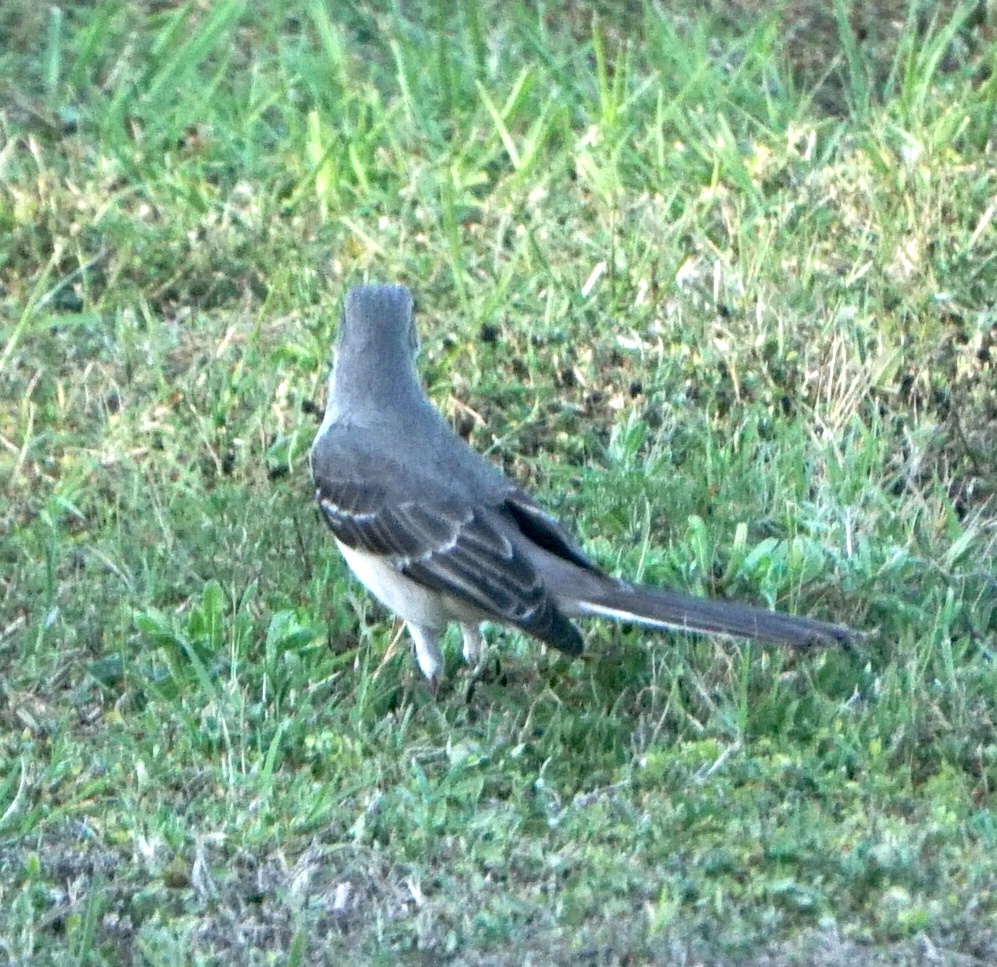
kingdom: Animalia
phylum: Chordata
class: Aves
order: Passeriformes
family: Mimidae
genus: Mimus
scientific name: Mimus polyglottos
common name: Northern mockingbird
